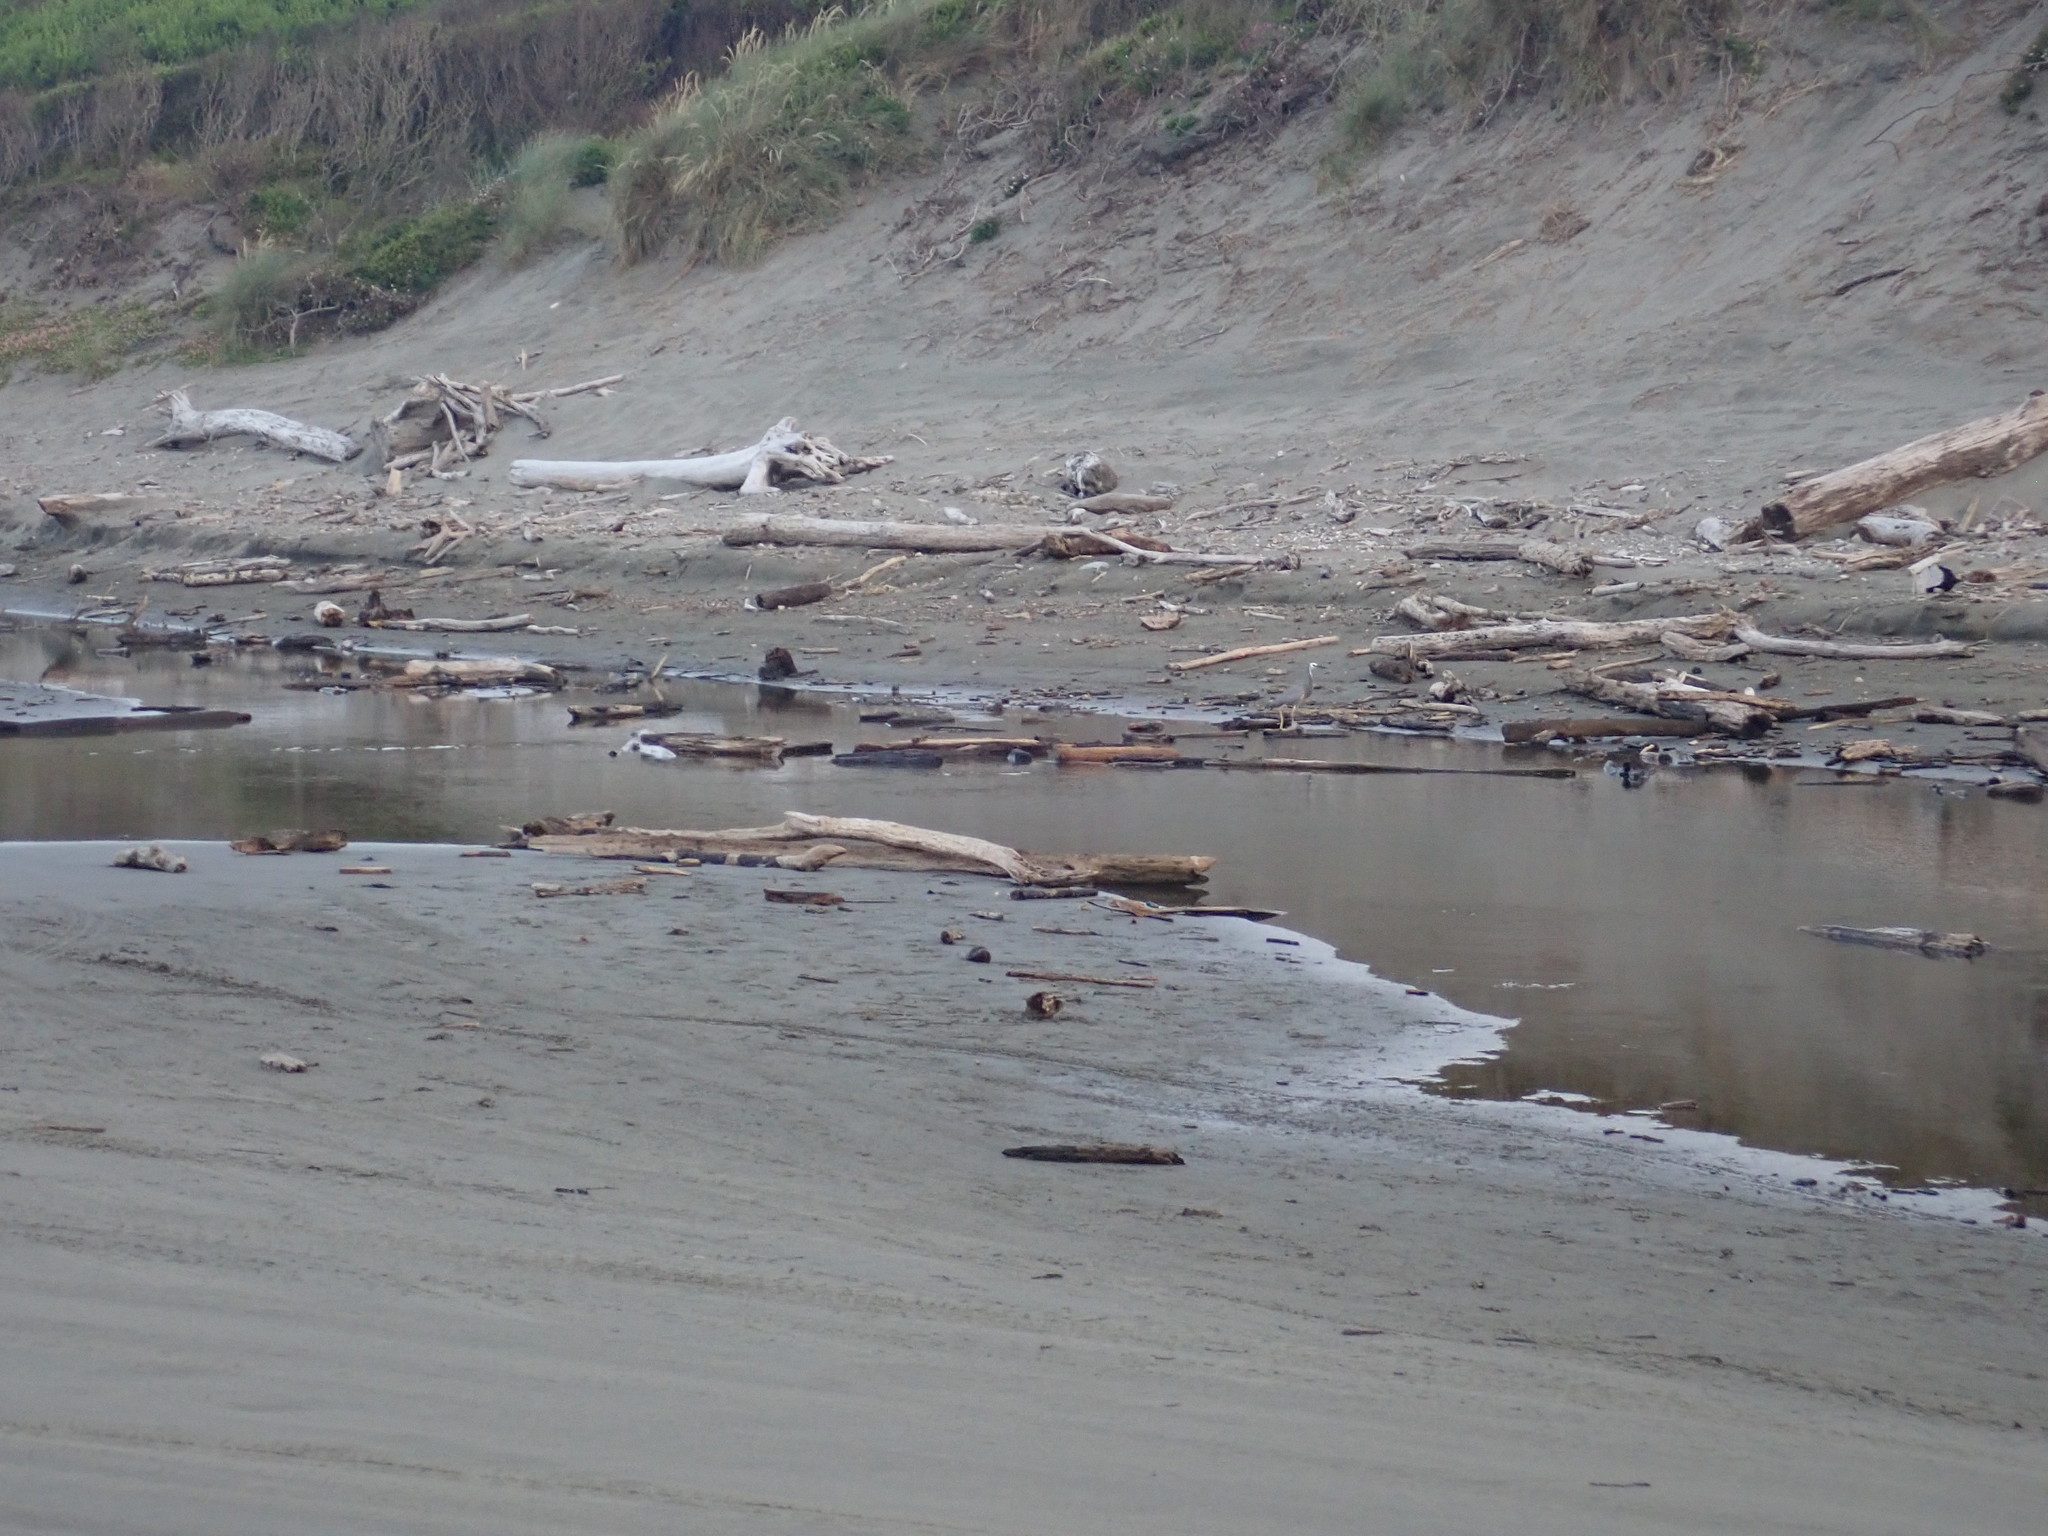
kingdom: Animalia
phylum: Chordata
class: Aves
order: Pelecaniformes
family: Ardeidae
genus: Egretta
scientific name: Egretta novaehollandiae
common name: White-faced heron
